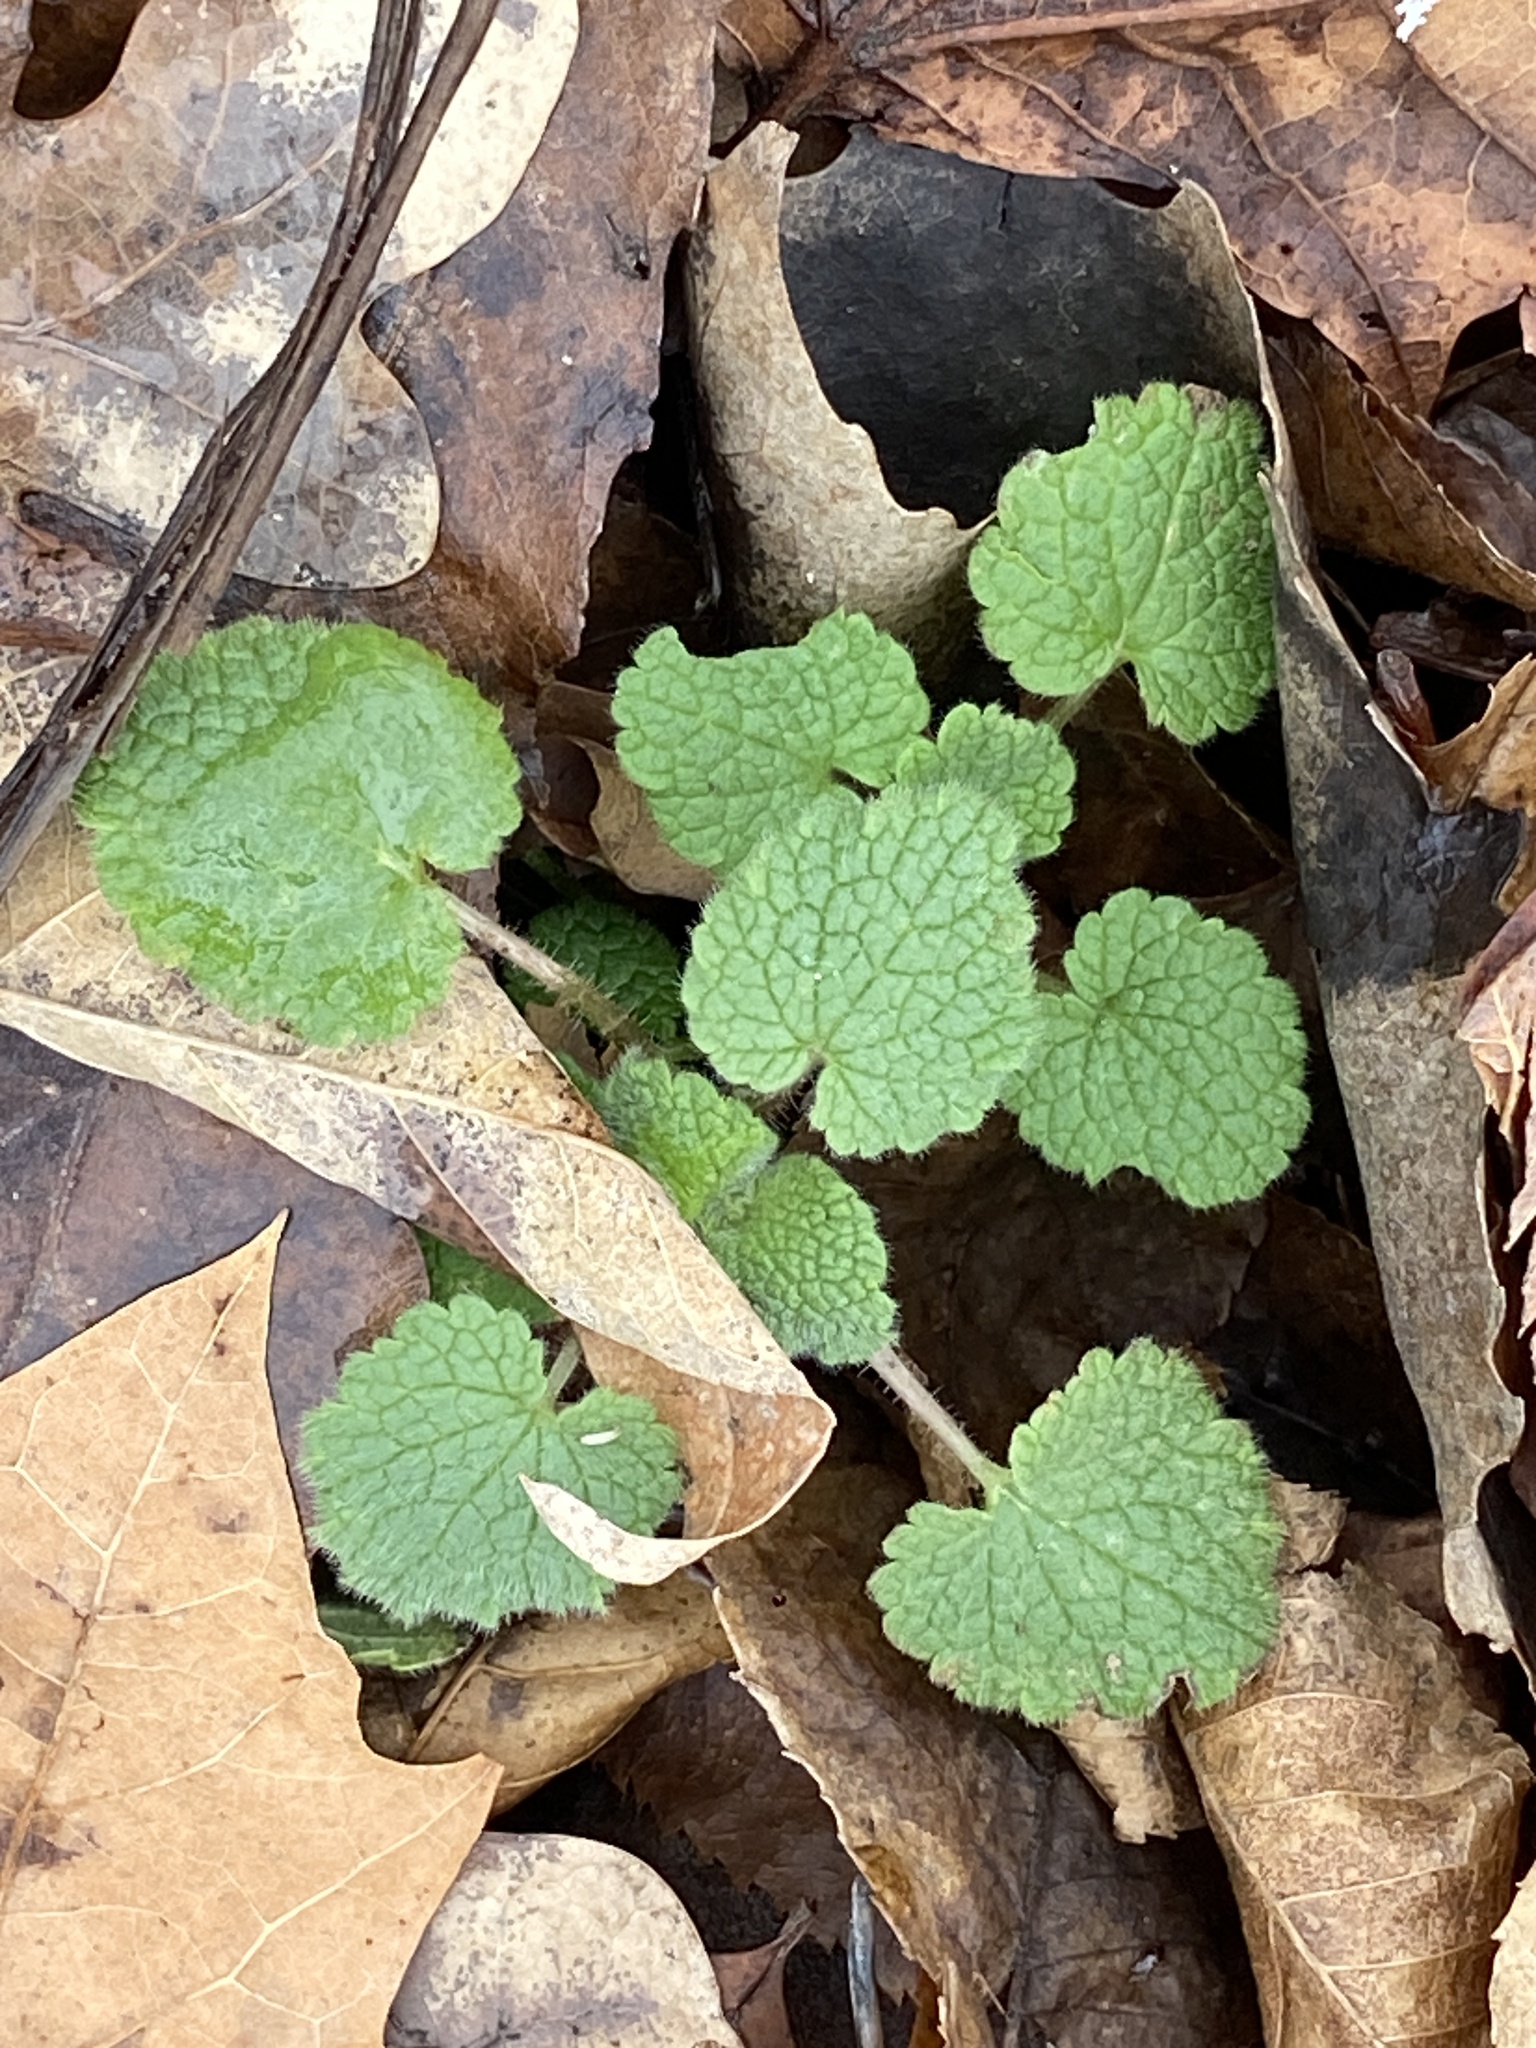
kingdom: Plantae
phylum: Tracheophyta
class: Magnoliopsida
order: Lamiales
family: Lamiaceae
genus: Lamium
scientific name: Lamium purpureum
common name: Red dead-nettle
